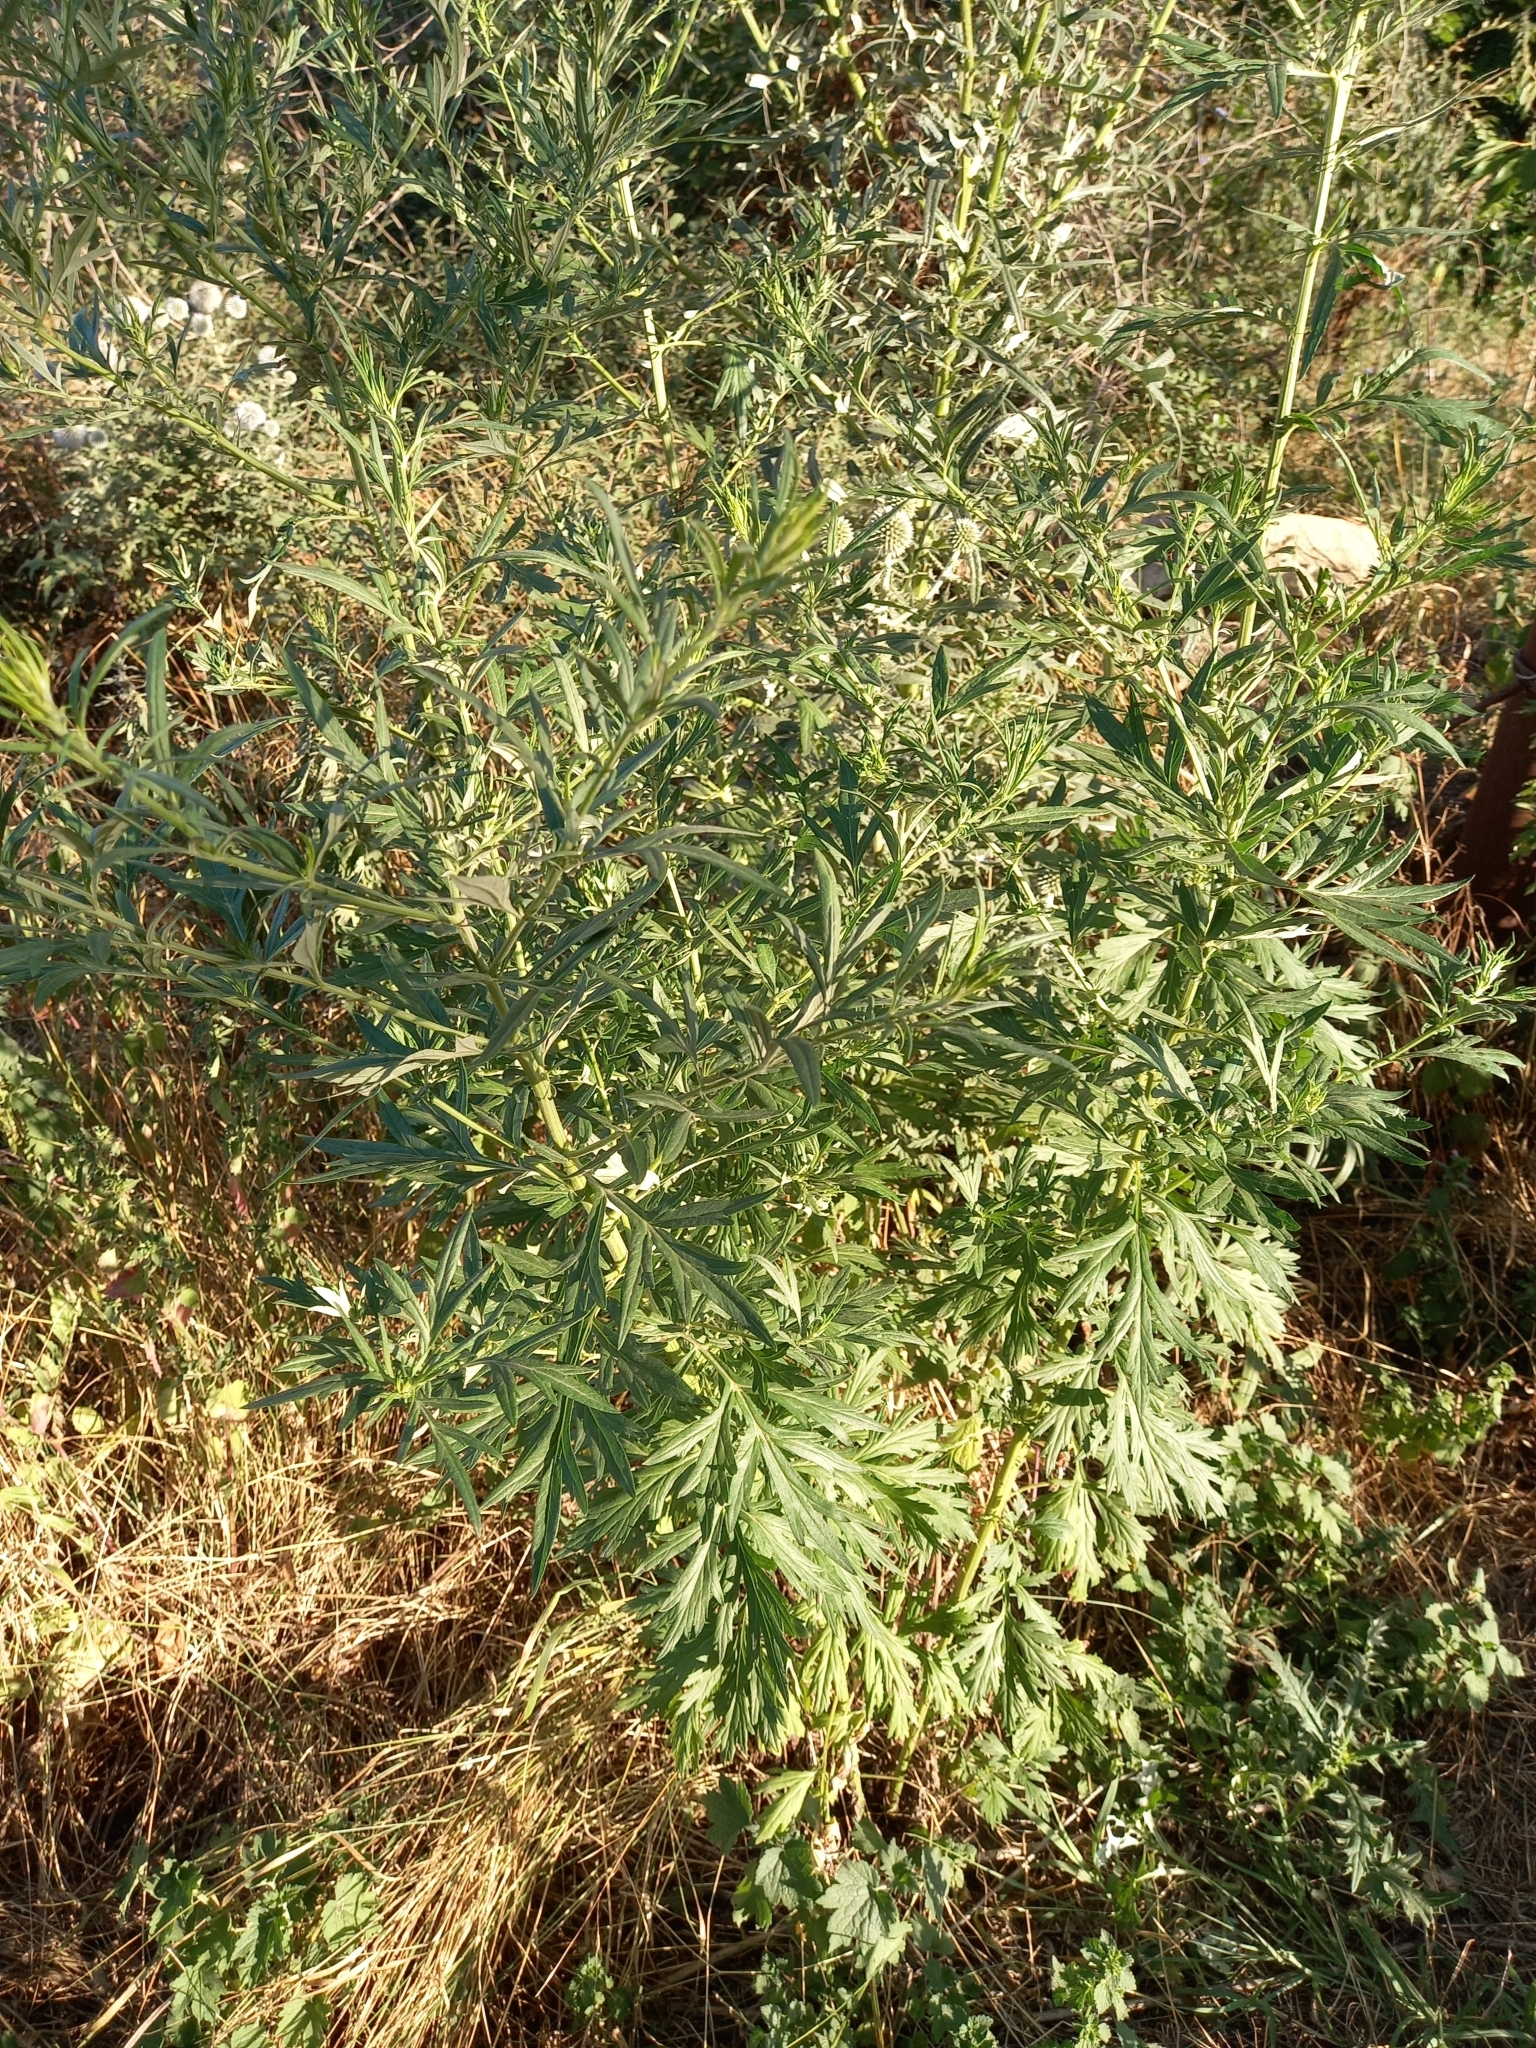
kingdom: Plantae
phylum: Tracheophyta
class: Magnoliopsida
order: Asterales
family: Asteraceae
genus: Artemisia
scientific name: Artemisia vulgaris
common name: Mugwort
